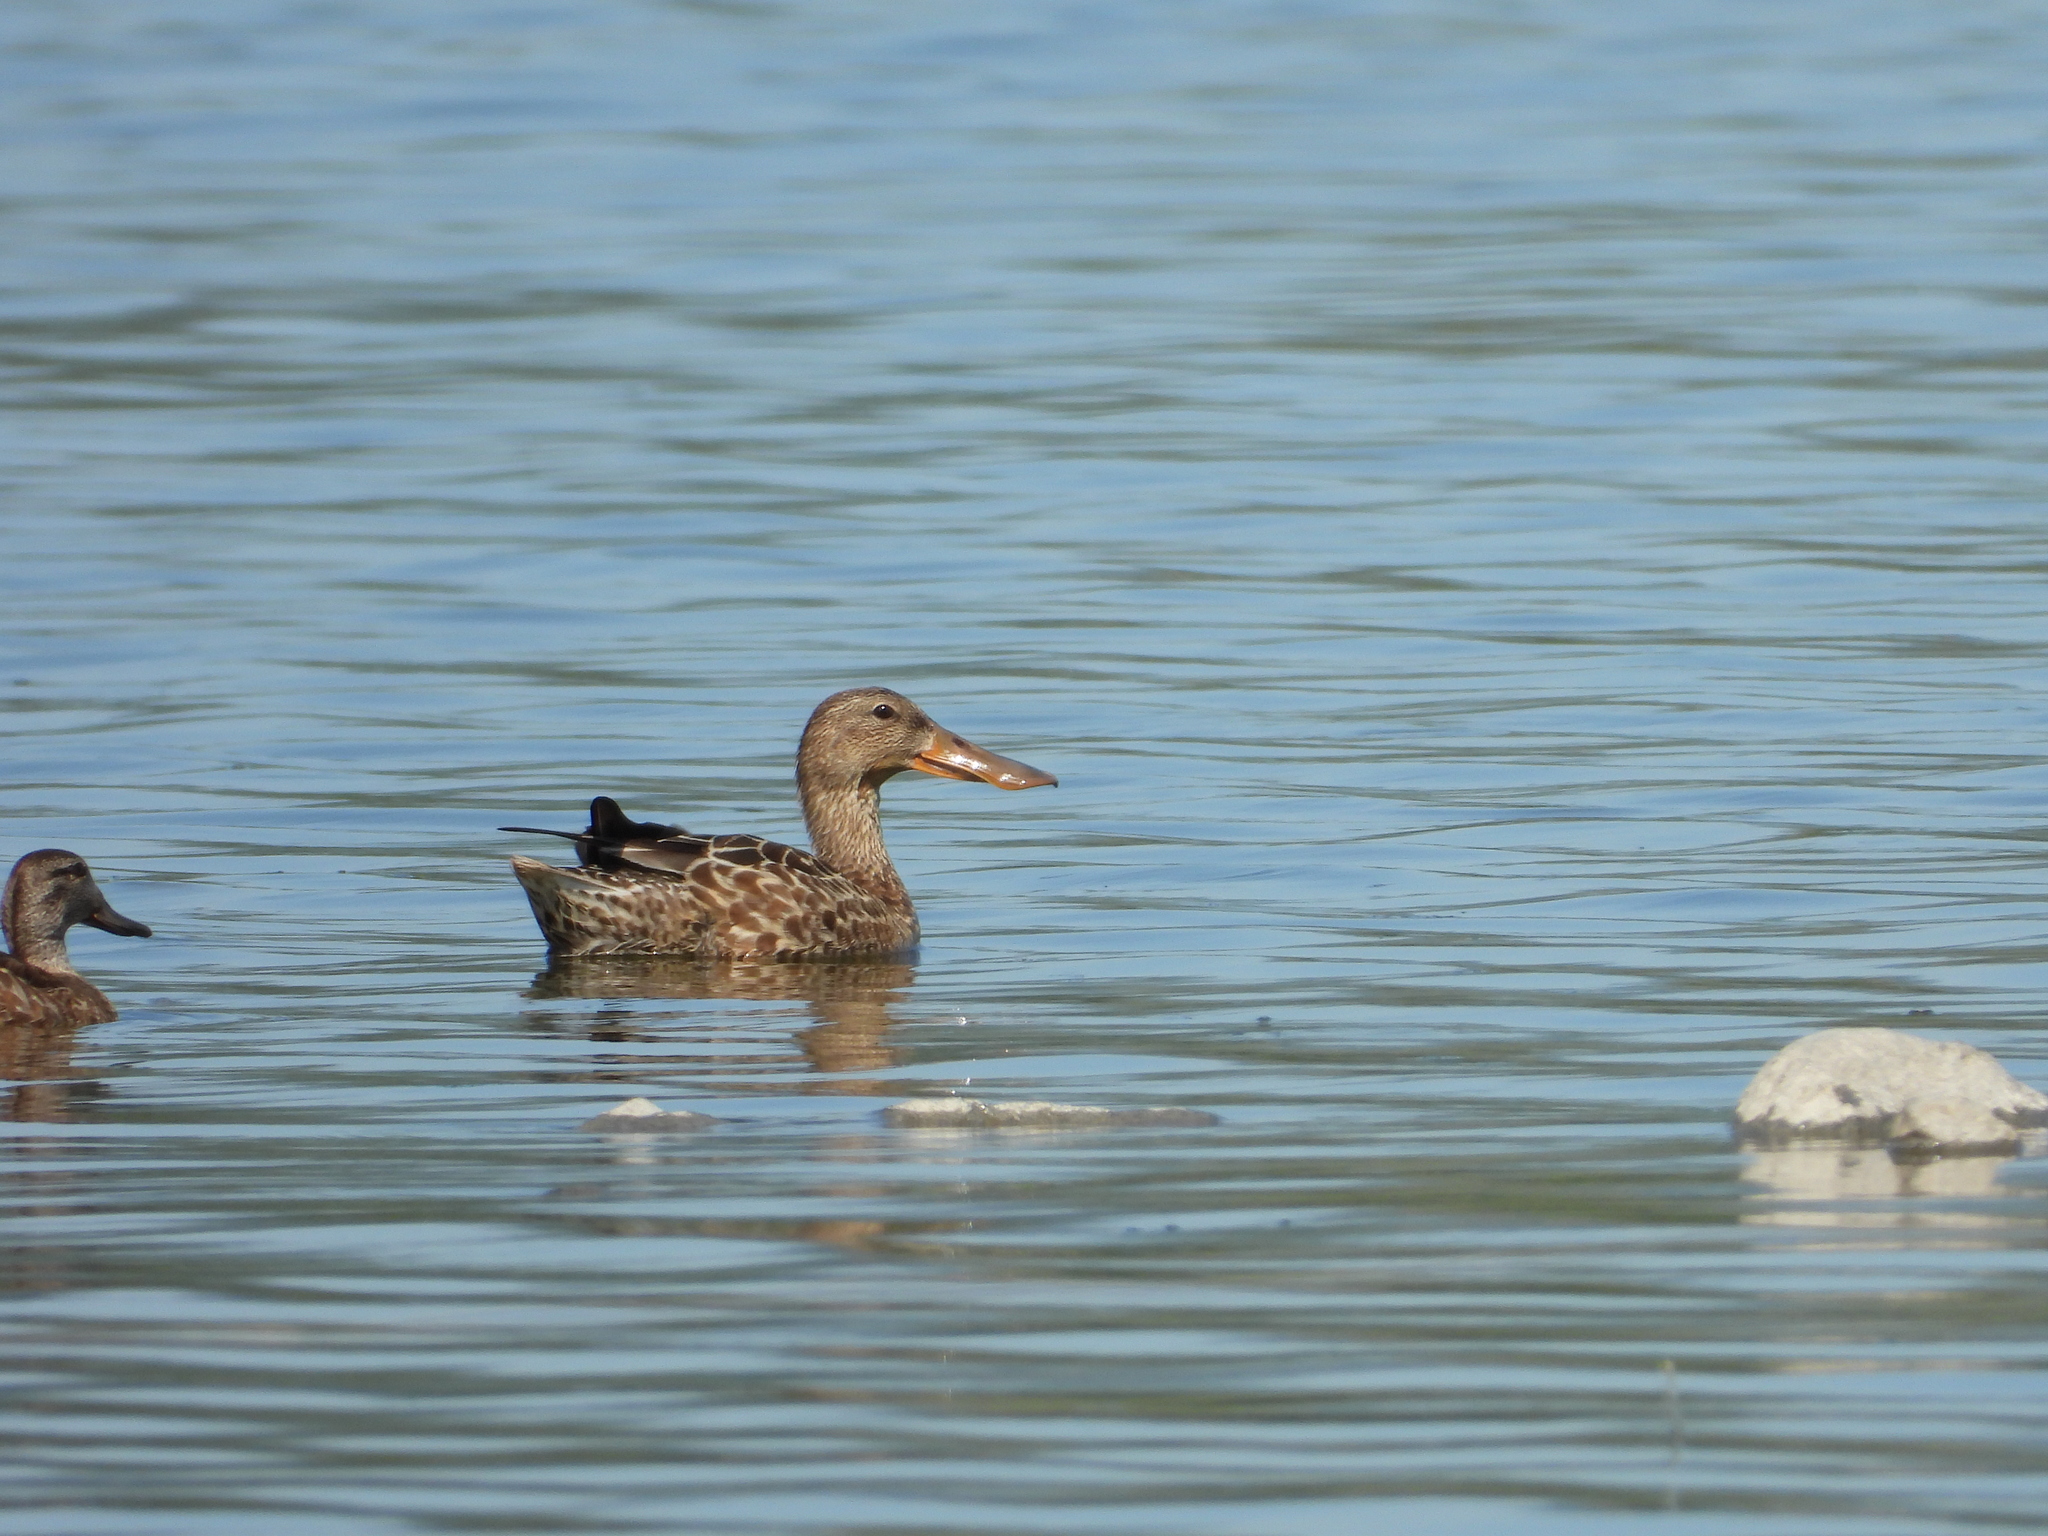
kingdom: Animalia
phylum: Chordata
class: Aves
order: Anseriformes
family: Anatidae
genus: Spatula
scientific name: Spatula clypeata
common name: Northern shoveler
